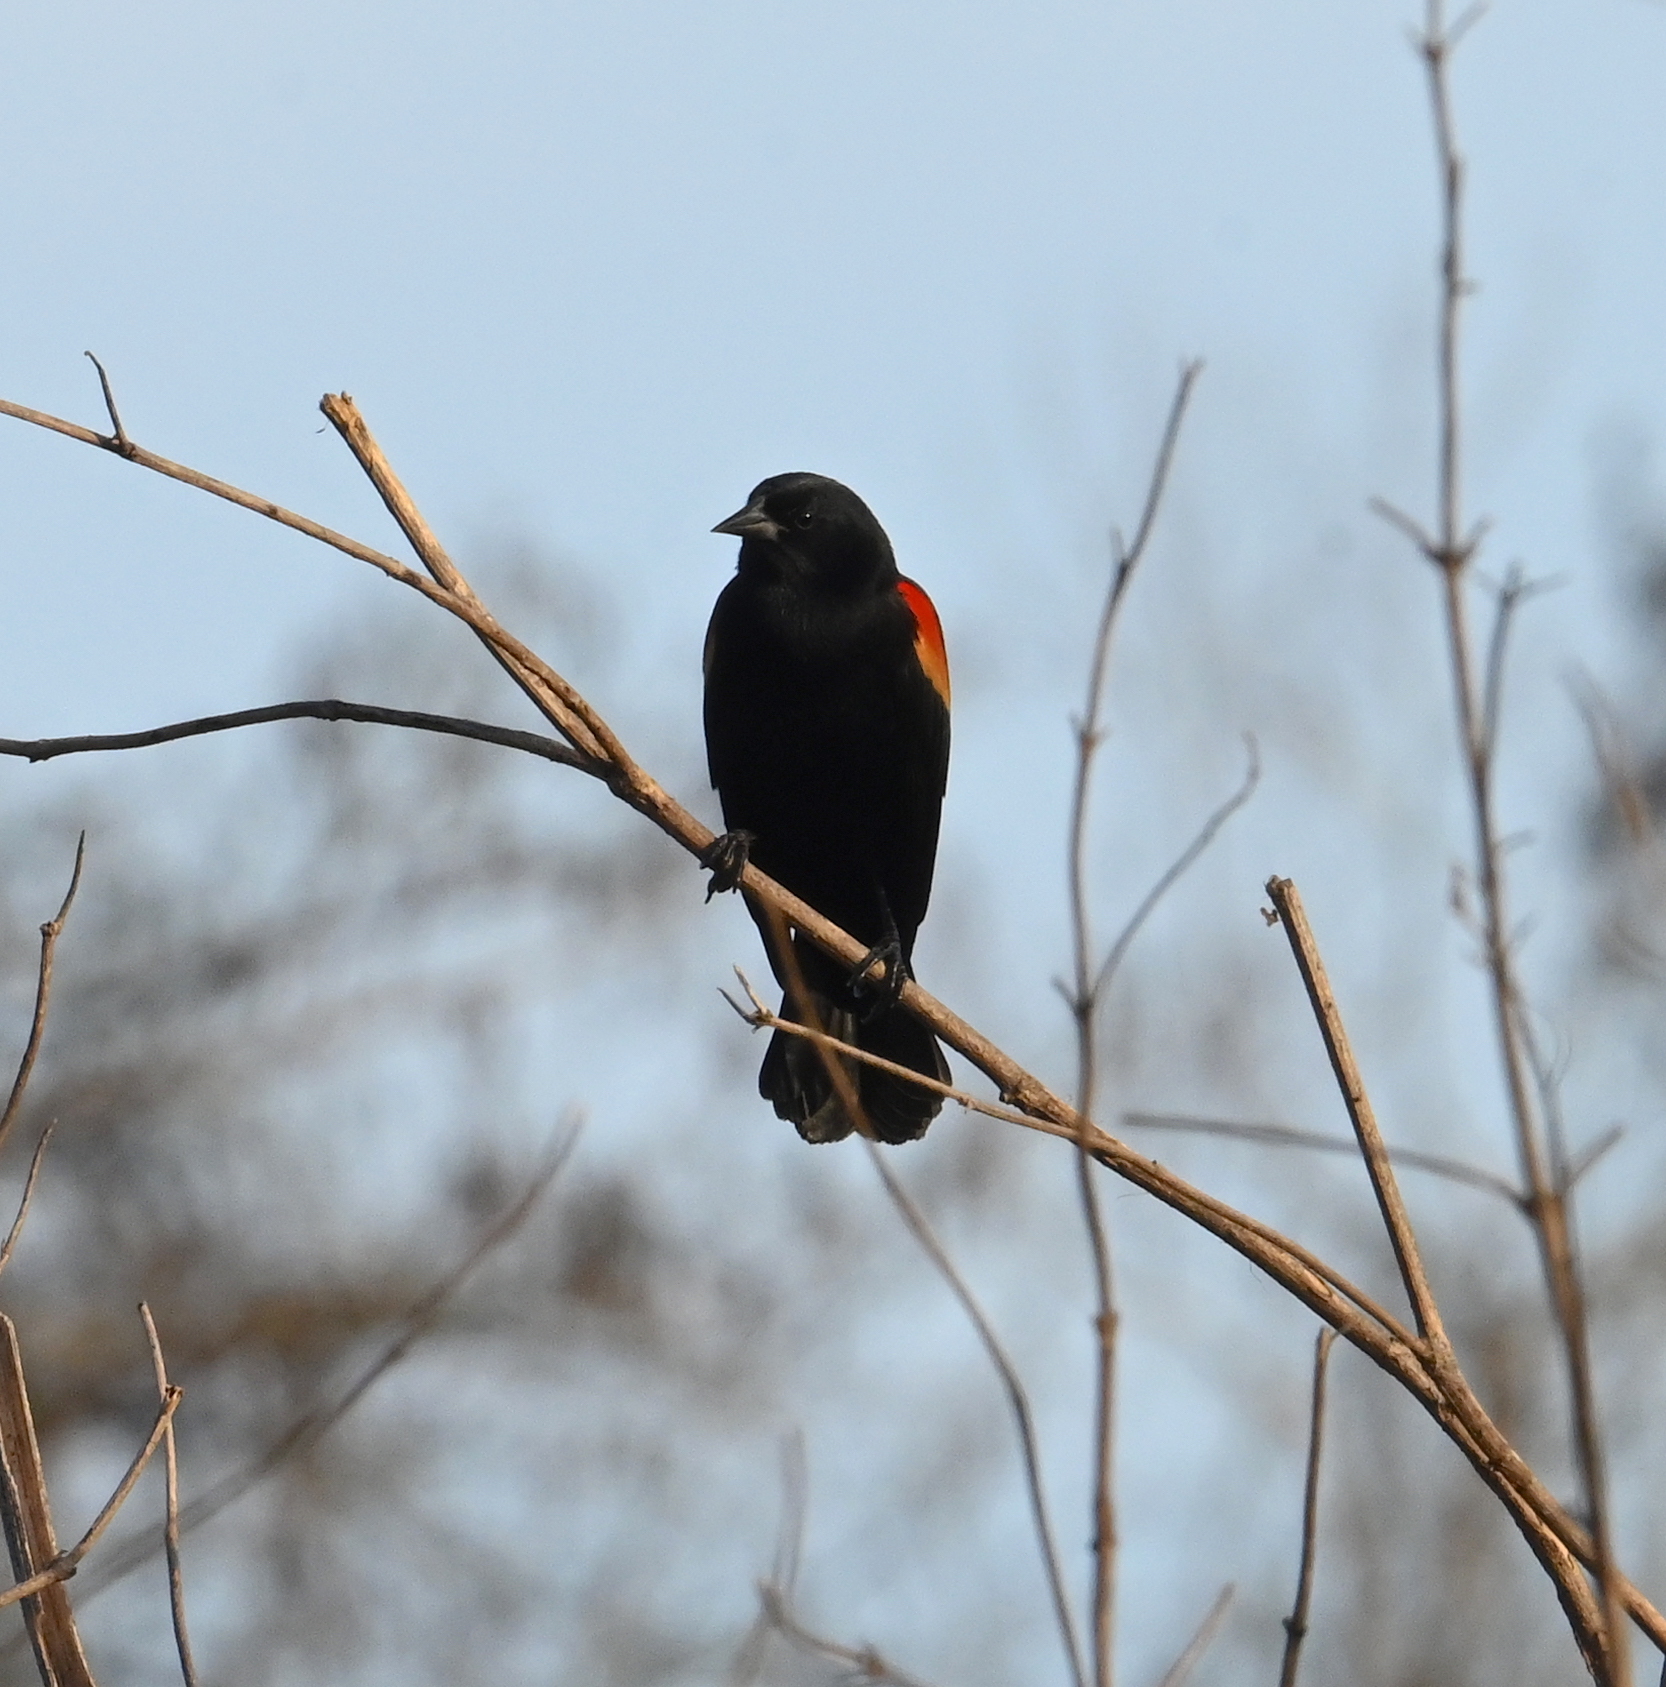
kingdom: Animalia
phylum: Chordata
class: Aves
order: Passeriformes
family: Icteridae
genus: Agelaius
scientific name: Agelaius phoeniceus
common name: Red-winged blackbird
